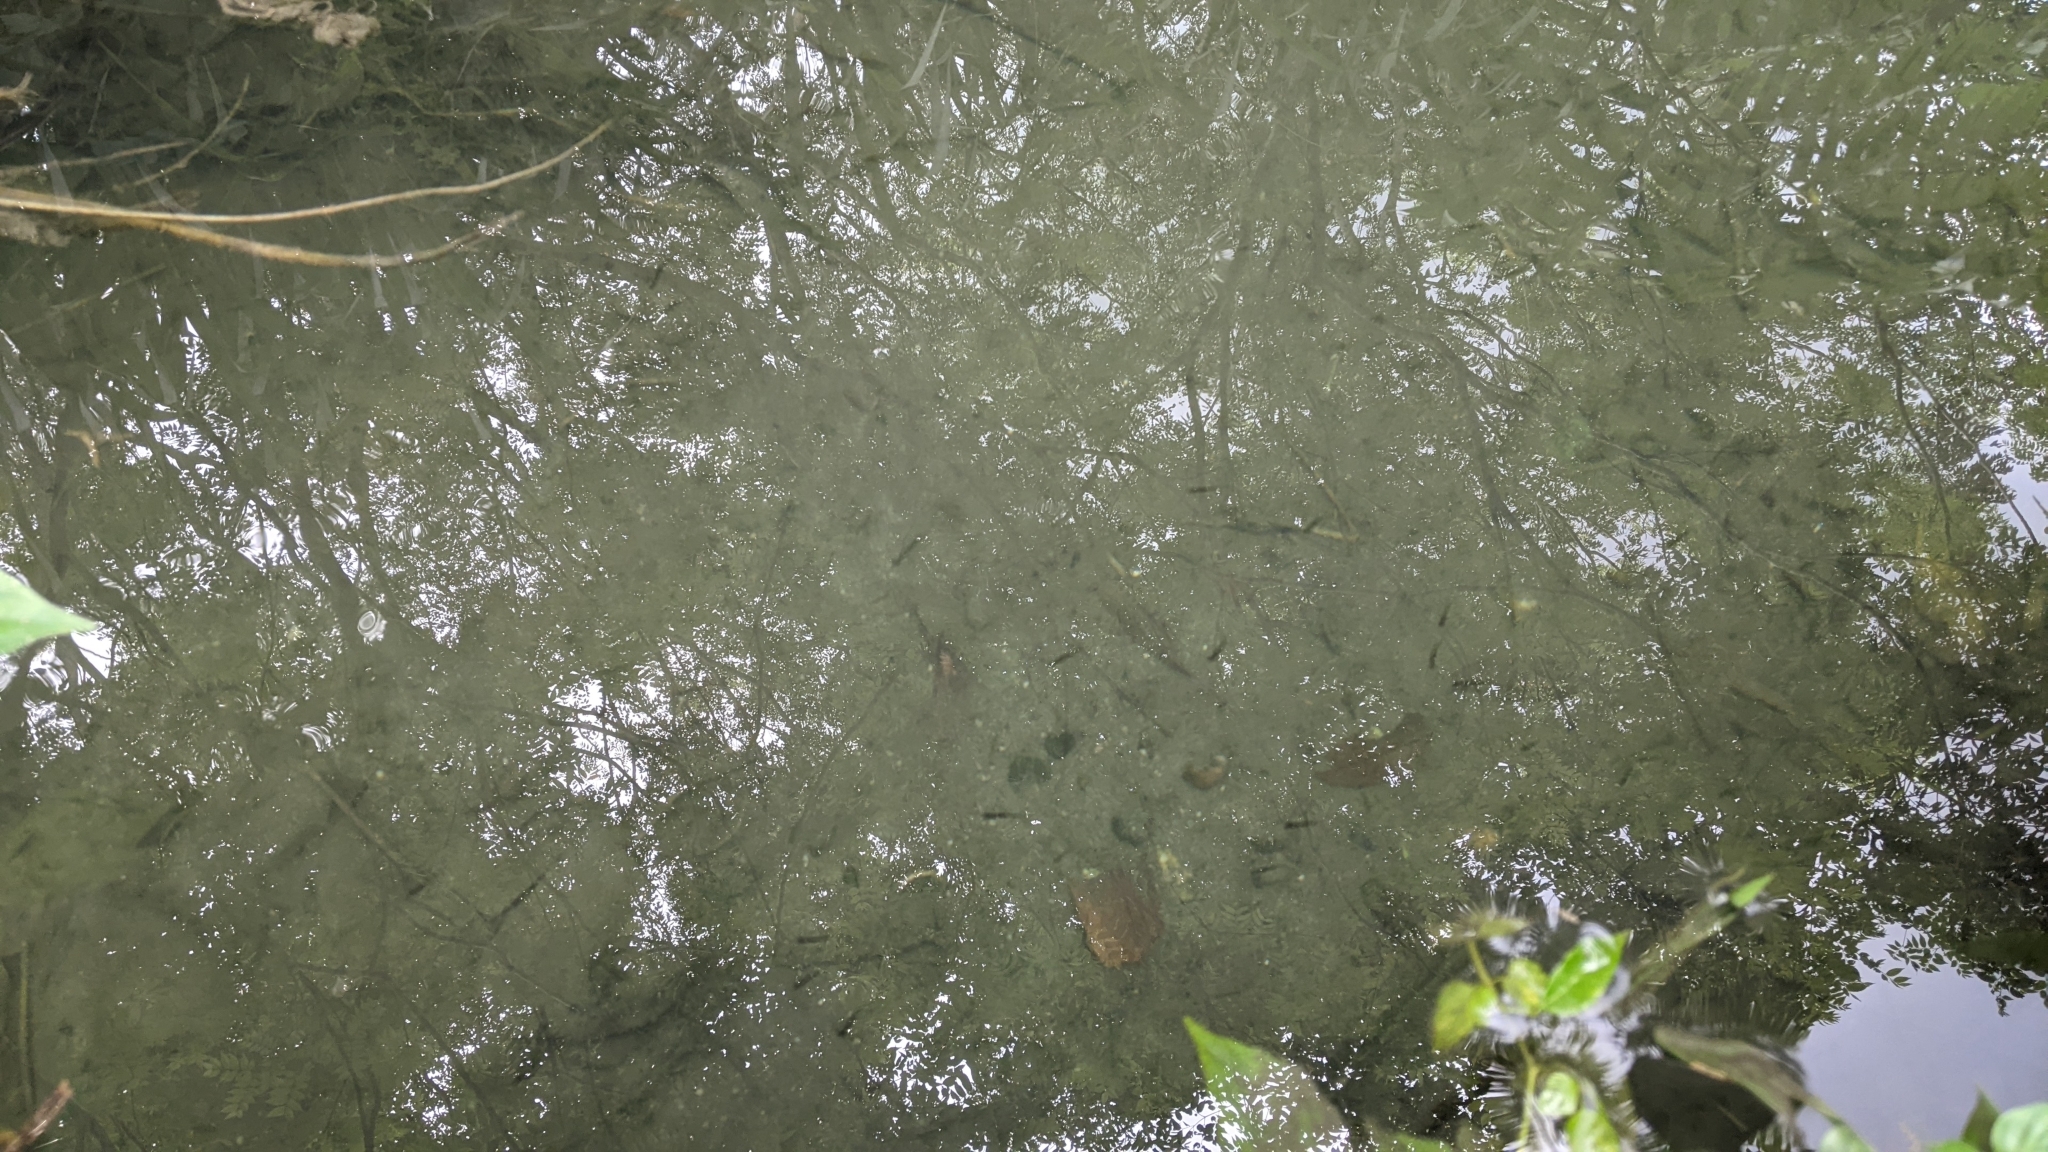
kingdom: Animalia
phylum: Chordata
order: Cypriniformes
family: Cyprinidae
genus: Aphyocypris
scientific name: Aphyocypris kikuchii
